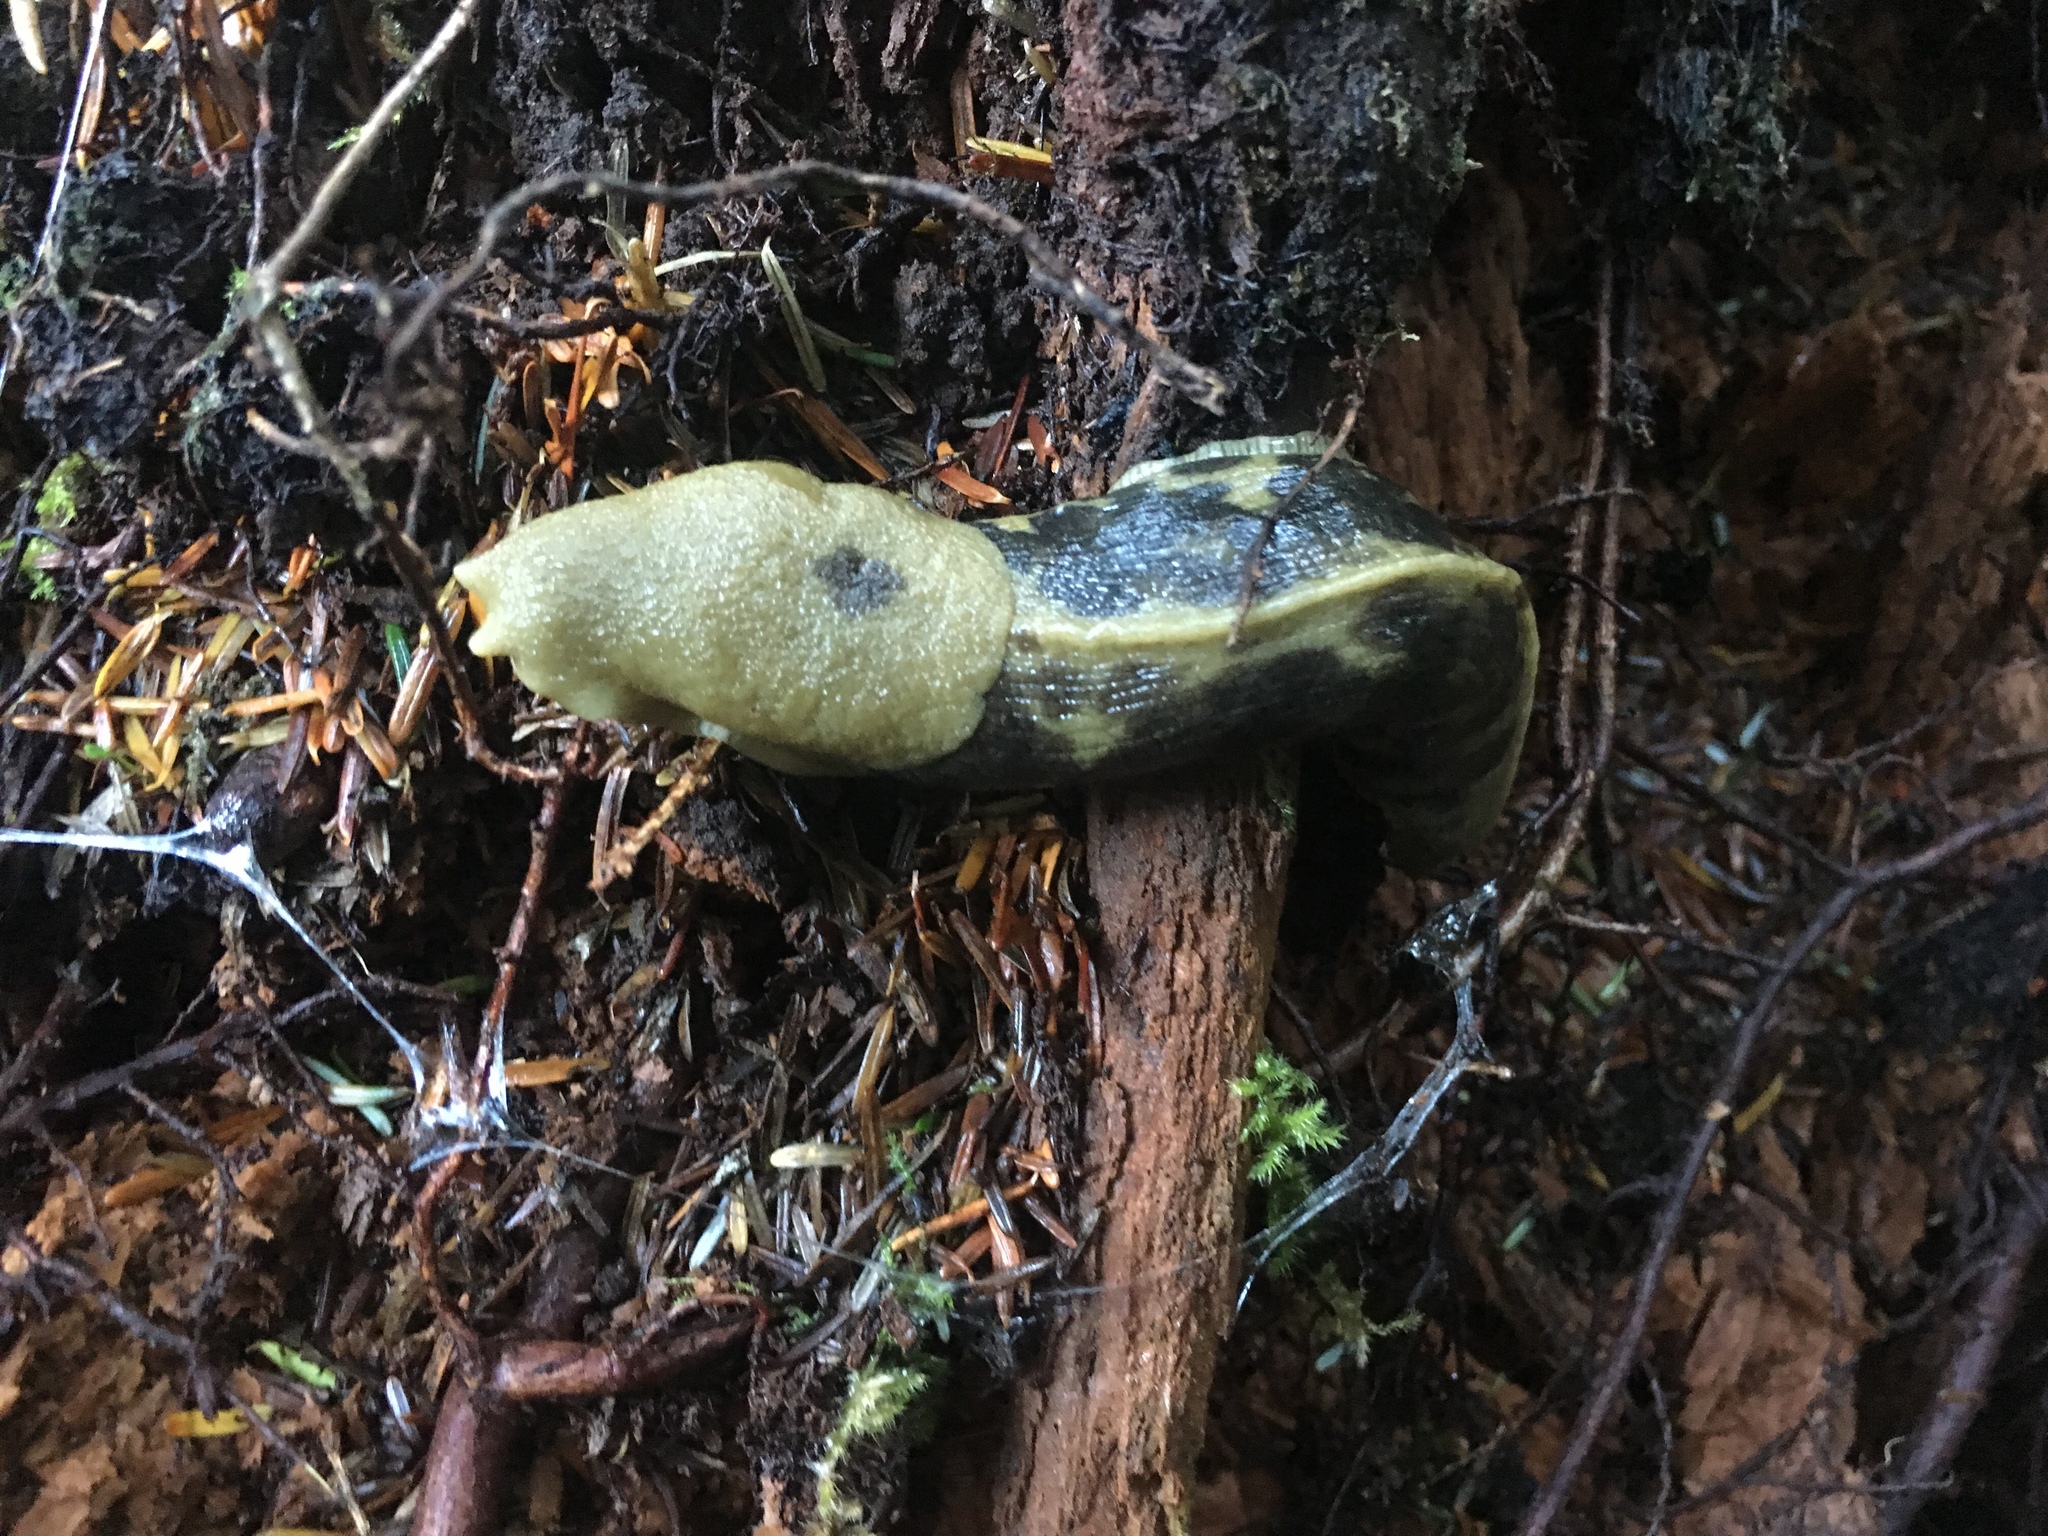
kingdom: Animalia
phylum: Mollusca
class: Gastropoda
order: Stylommatophora
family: Ariolimacidae
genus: Ariolimax
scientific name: Ariolimax columbianus
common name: Pacific banana slug
